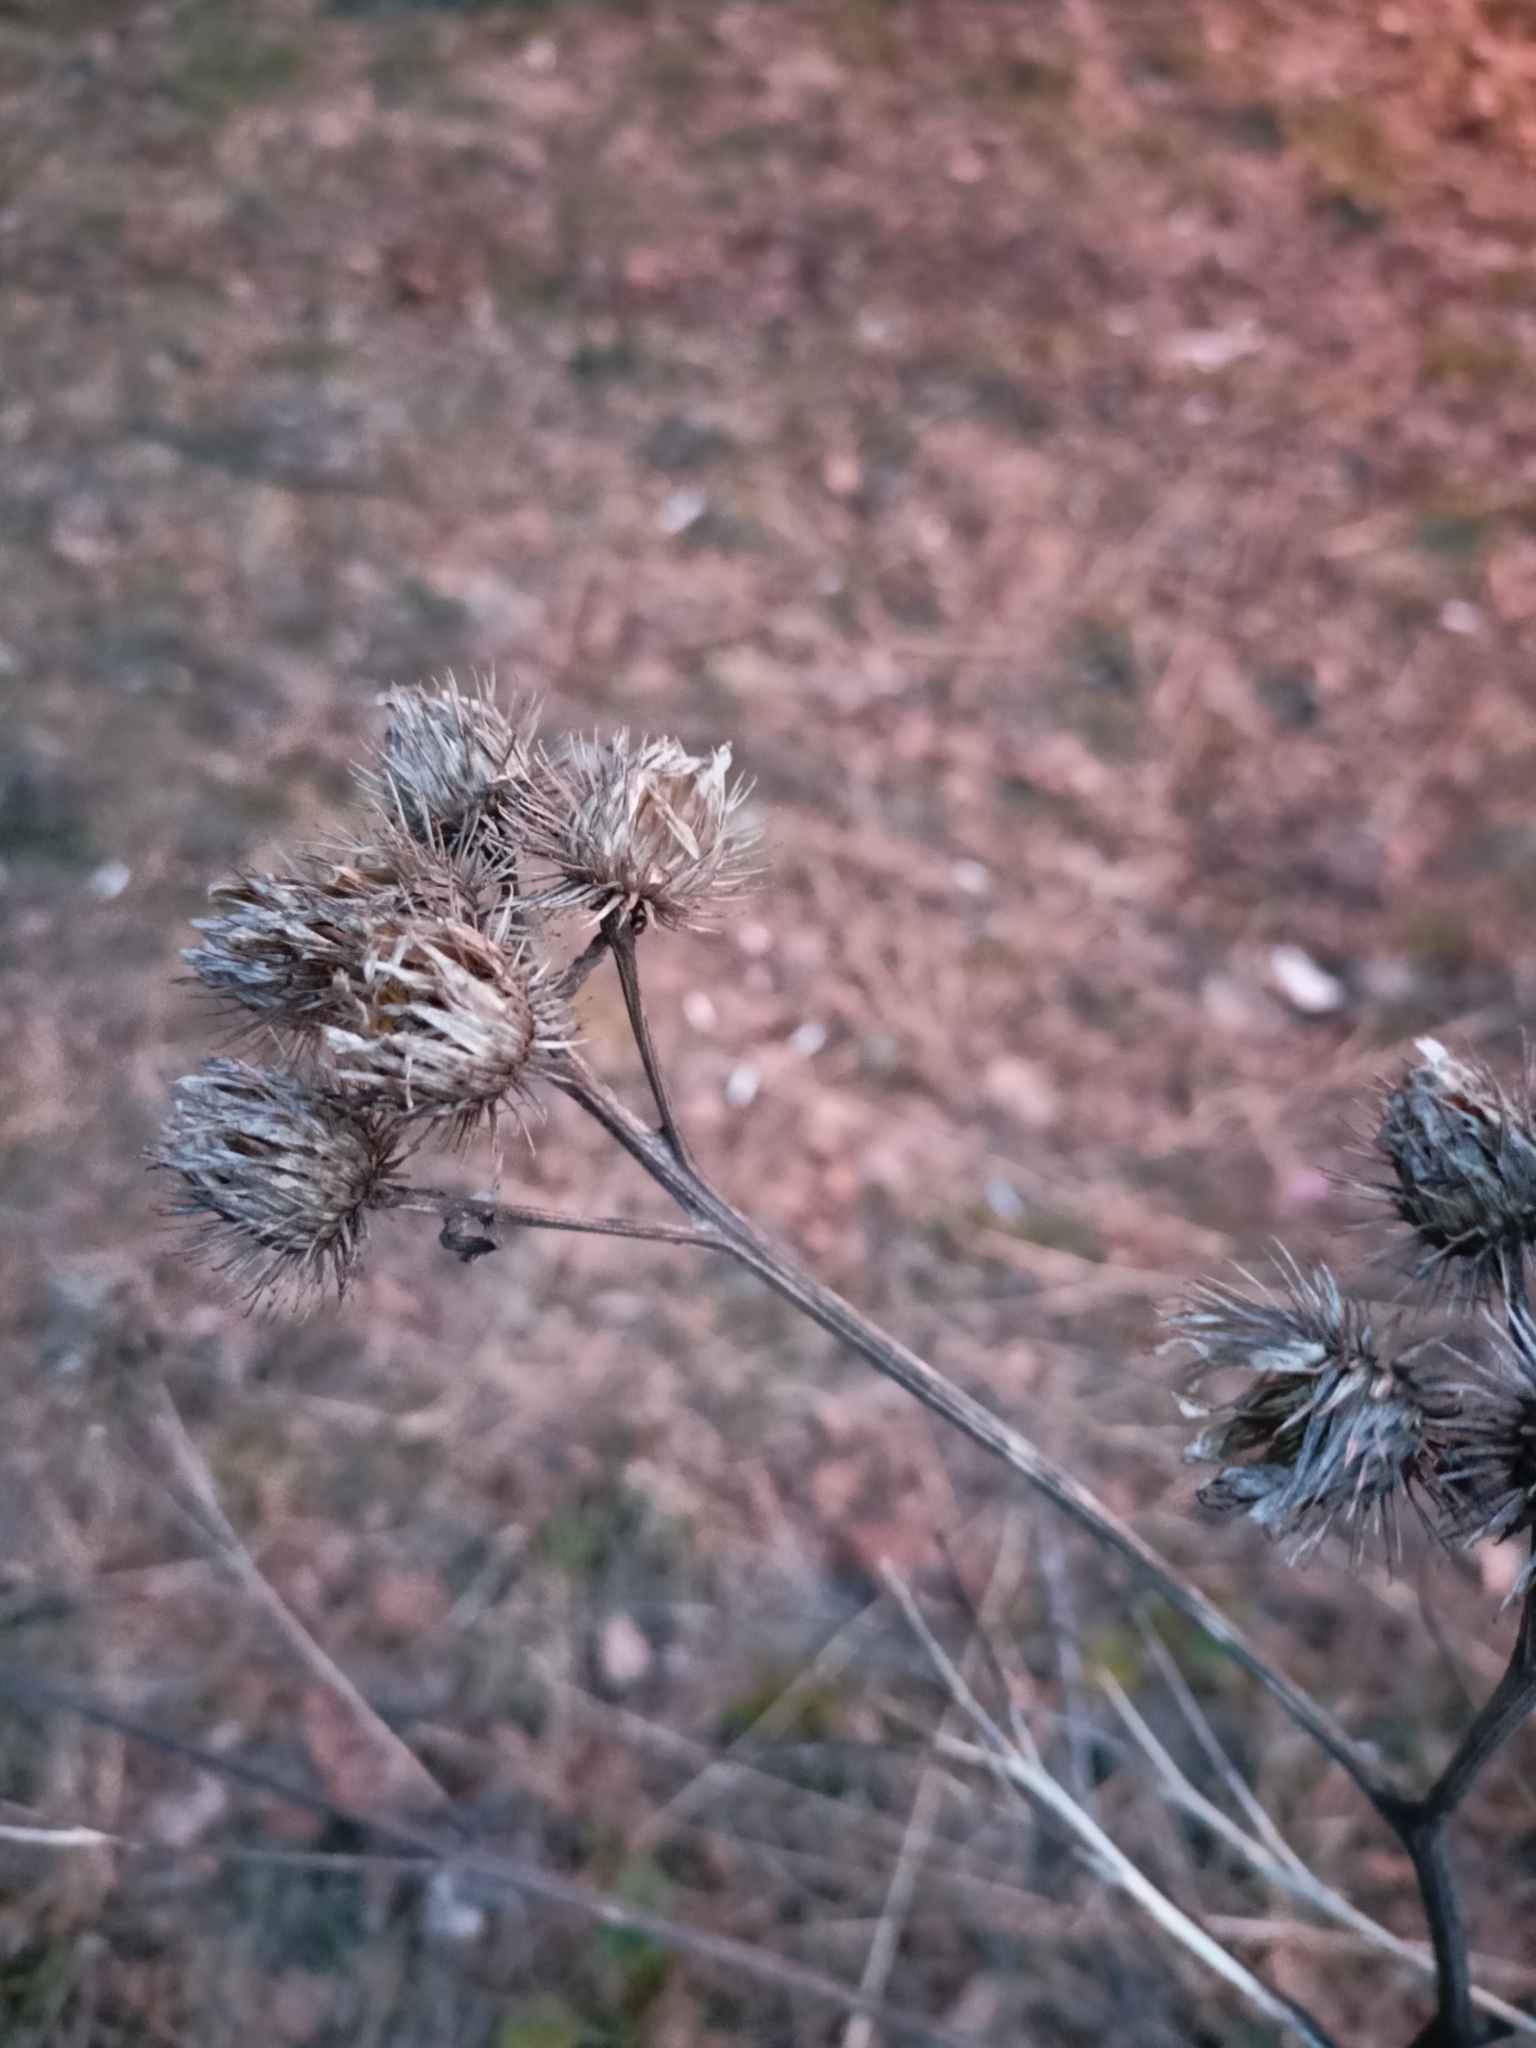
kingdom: Plantae
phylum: Tracheophyta
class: Magnoliopsida
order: Asterales
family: Asteraceae
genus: Arctium
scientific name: Arctium tomentosum
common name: Woolly burdock
